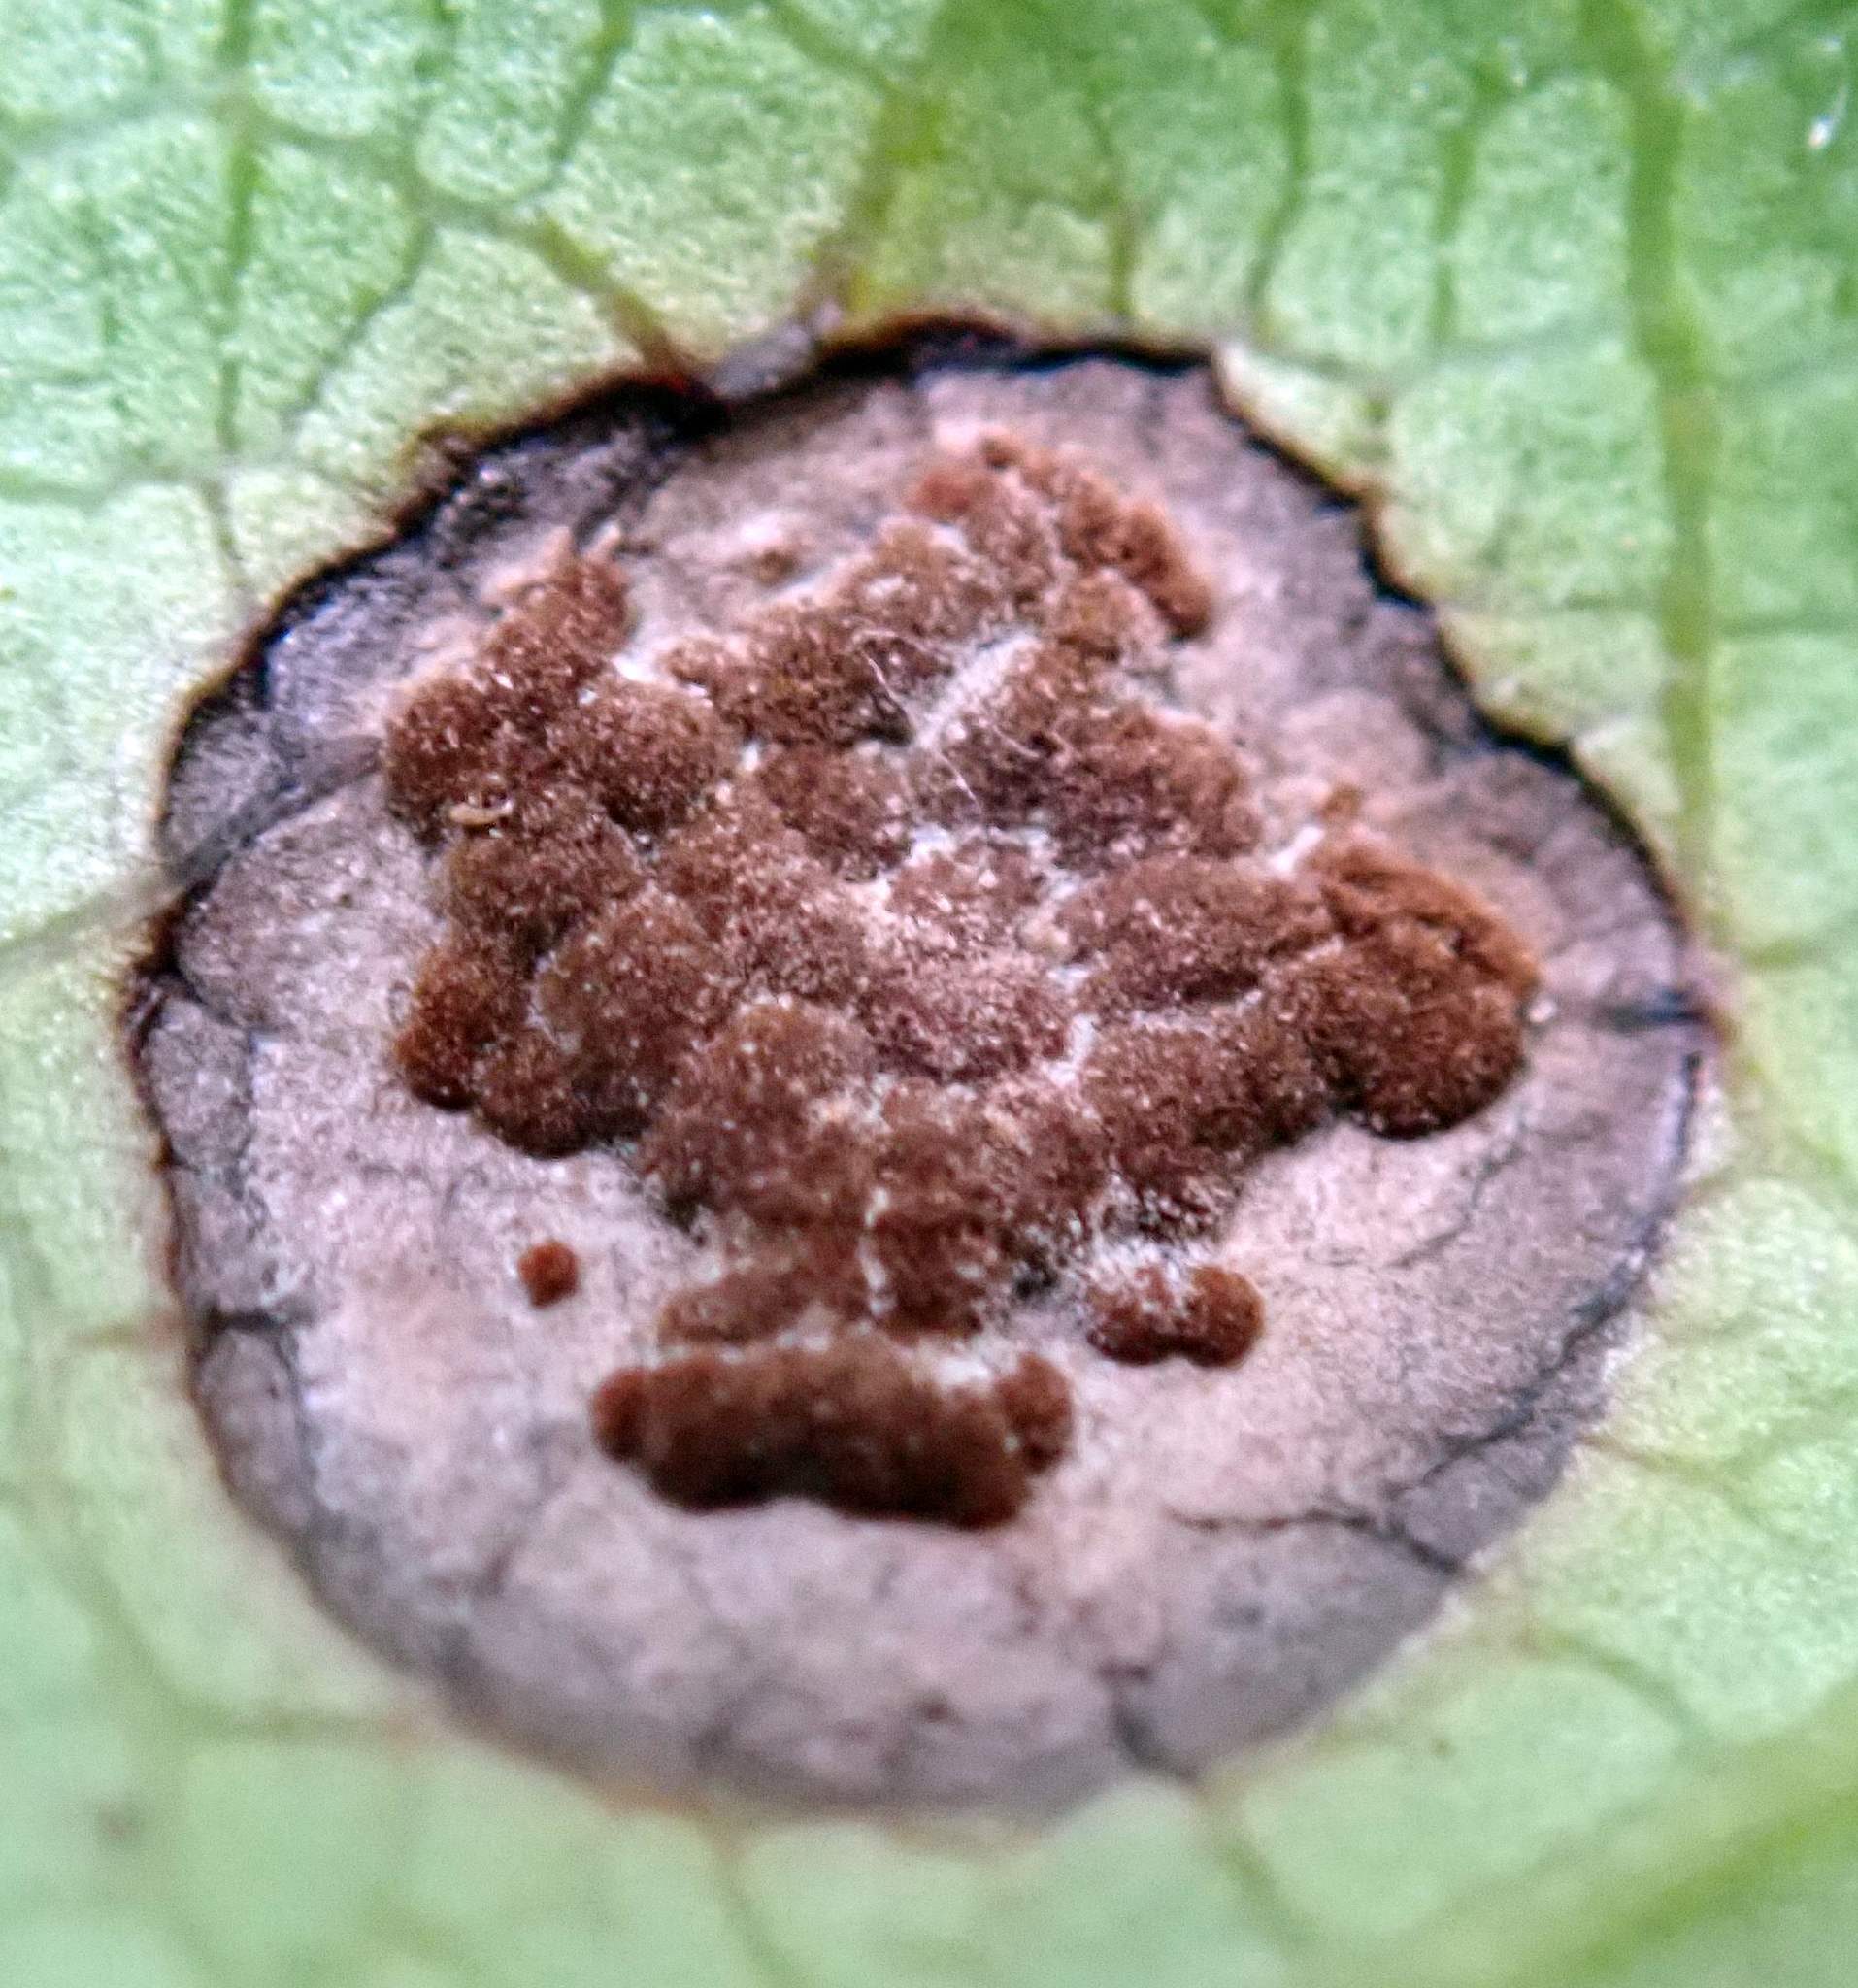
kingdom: Fungi
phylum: Basidiomycota
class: Pucciniomycetes
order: Pucciniales
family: Pucciniaceae
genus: Puccinia
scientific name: Puccinia coprosmae
